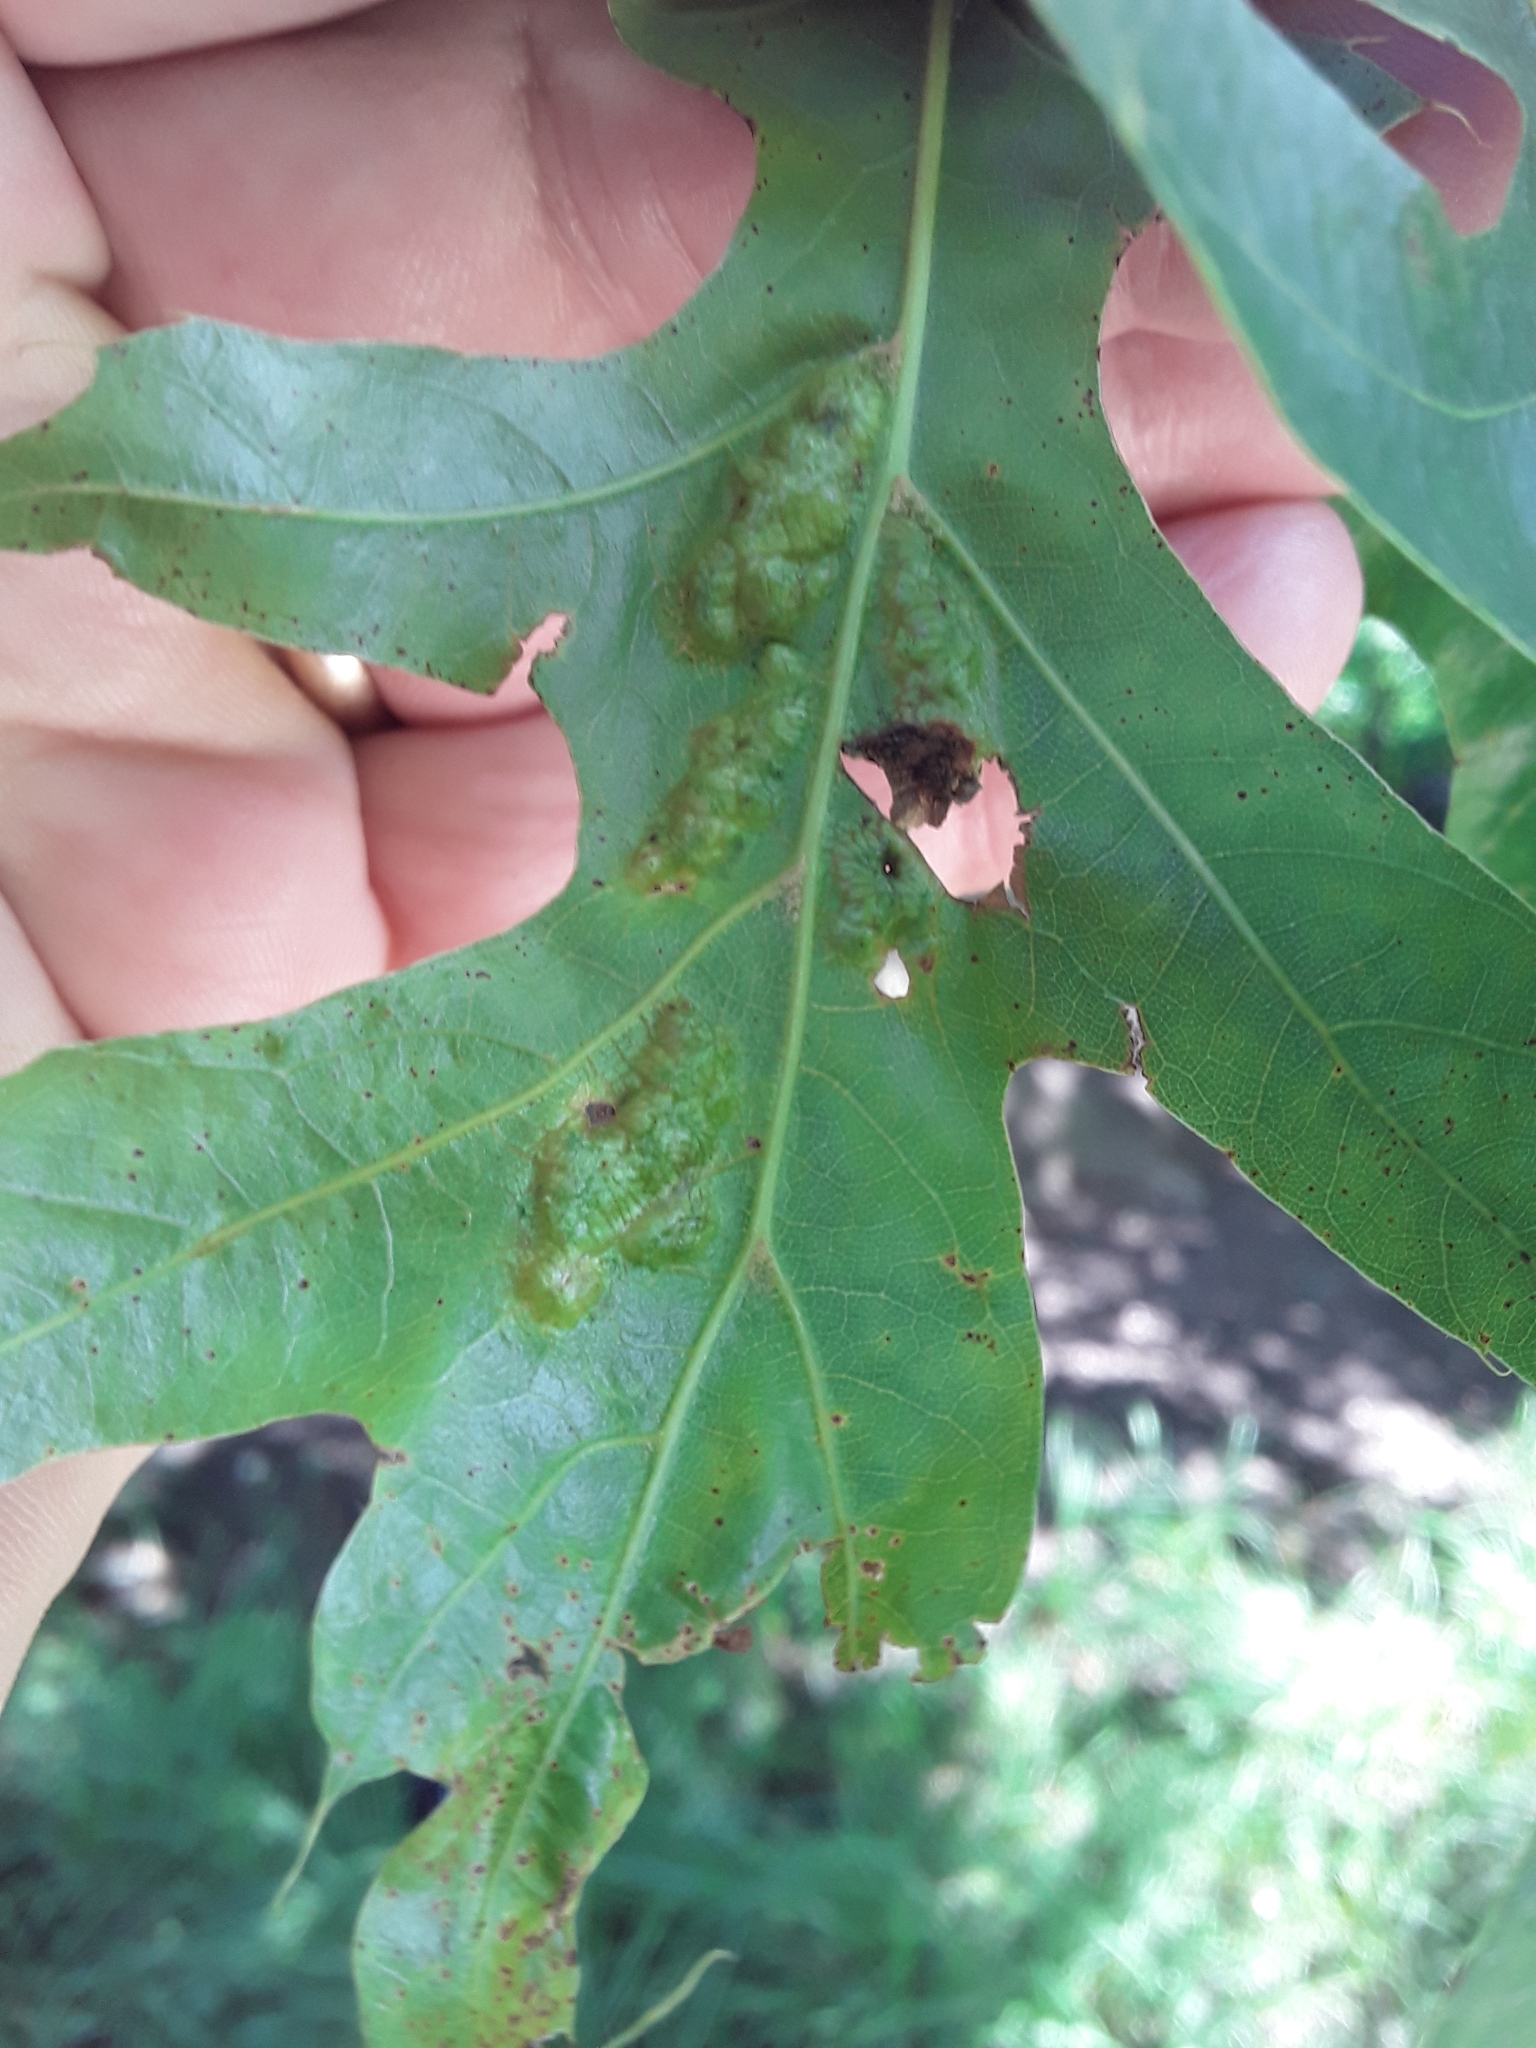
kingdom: Fungi
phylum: Ascomycota
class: Taphrinomycetes
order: Taphrinales
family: Taphrinaceae
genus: Taphrina
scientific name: Taphrina caerulescens
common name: Oak leaf blister
